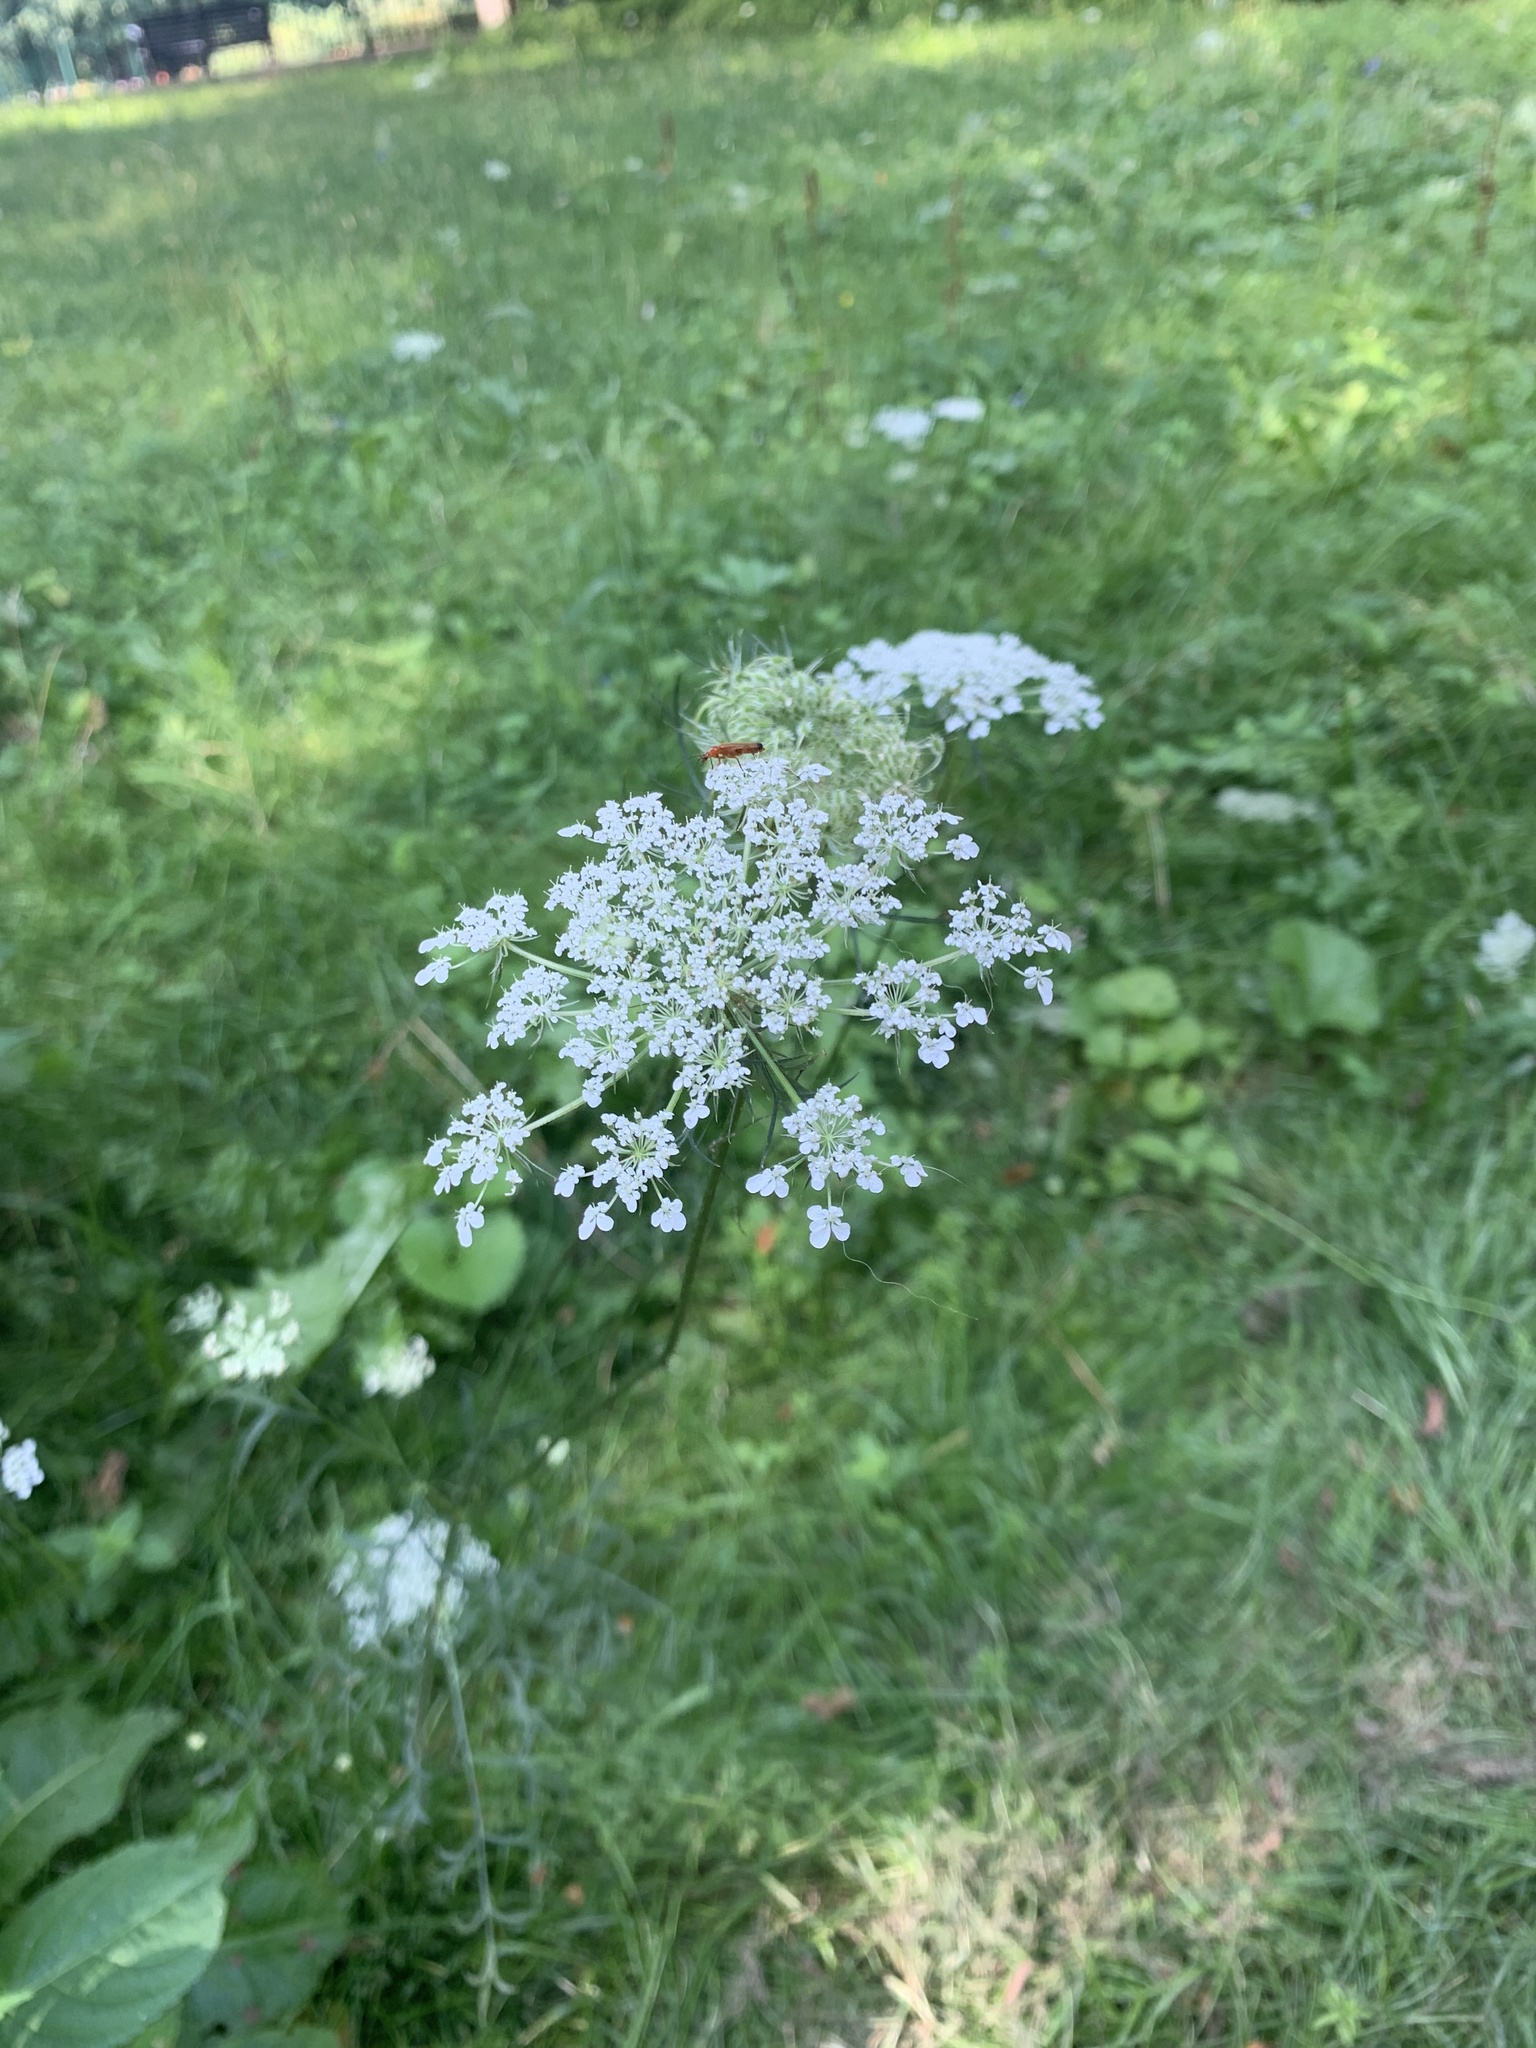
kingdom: Plantae
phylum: Tracheophyta
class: Magnoliopsida
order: Apiales
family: Apiaceae
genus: Daucus
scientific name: Daucus carota
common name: Wild carrot
